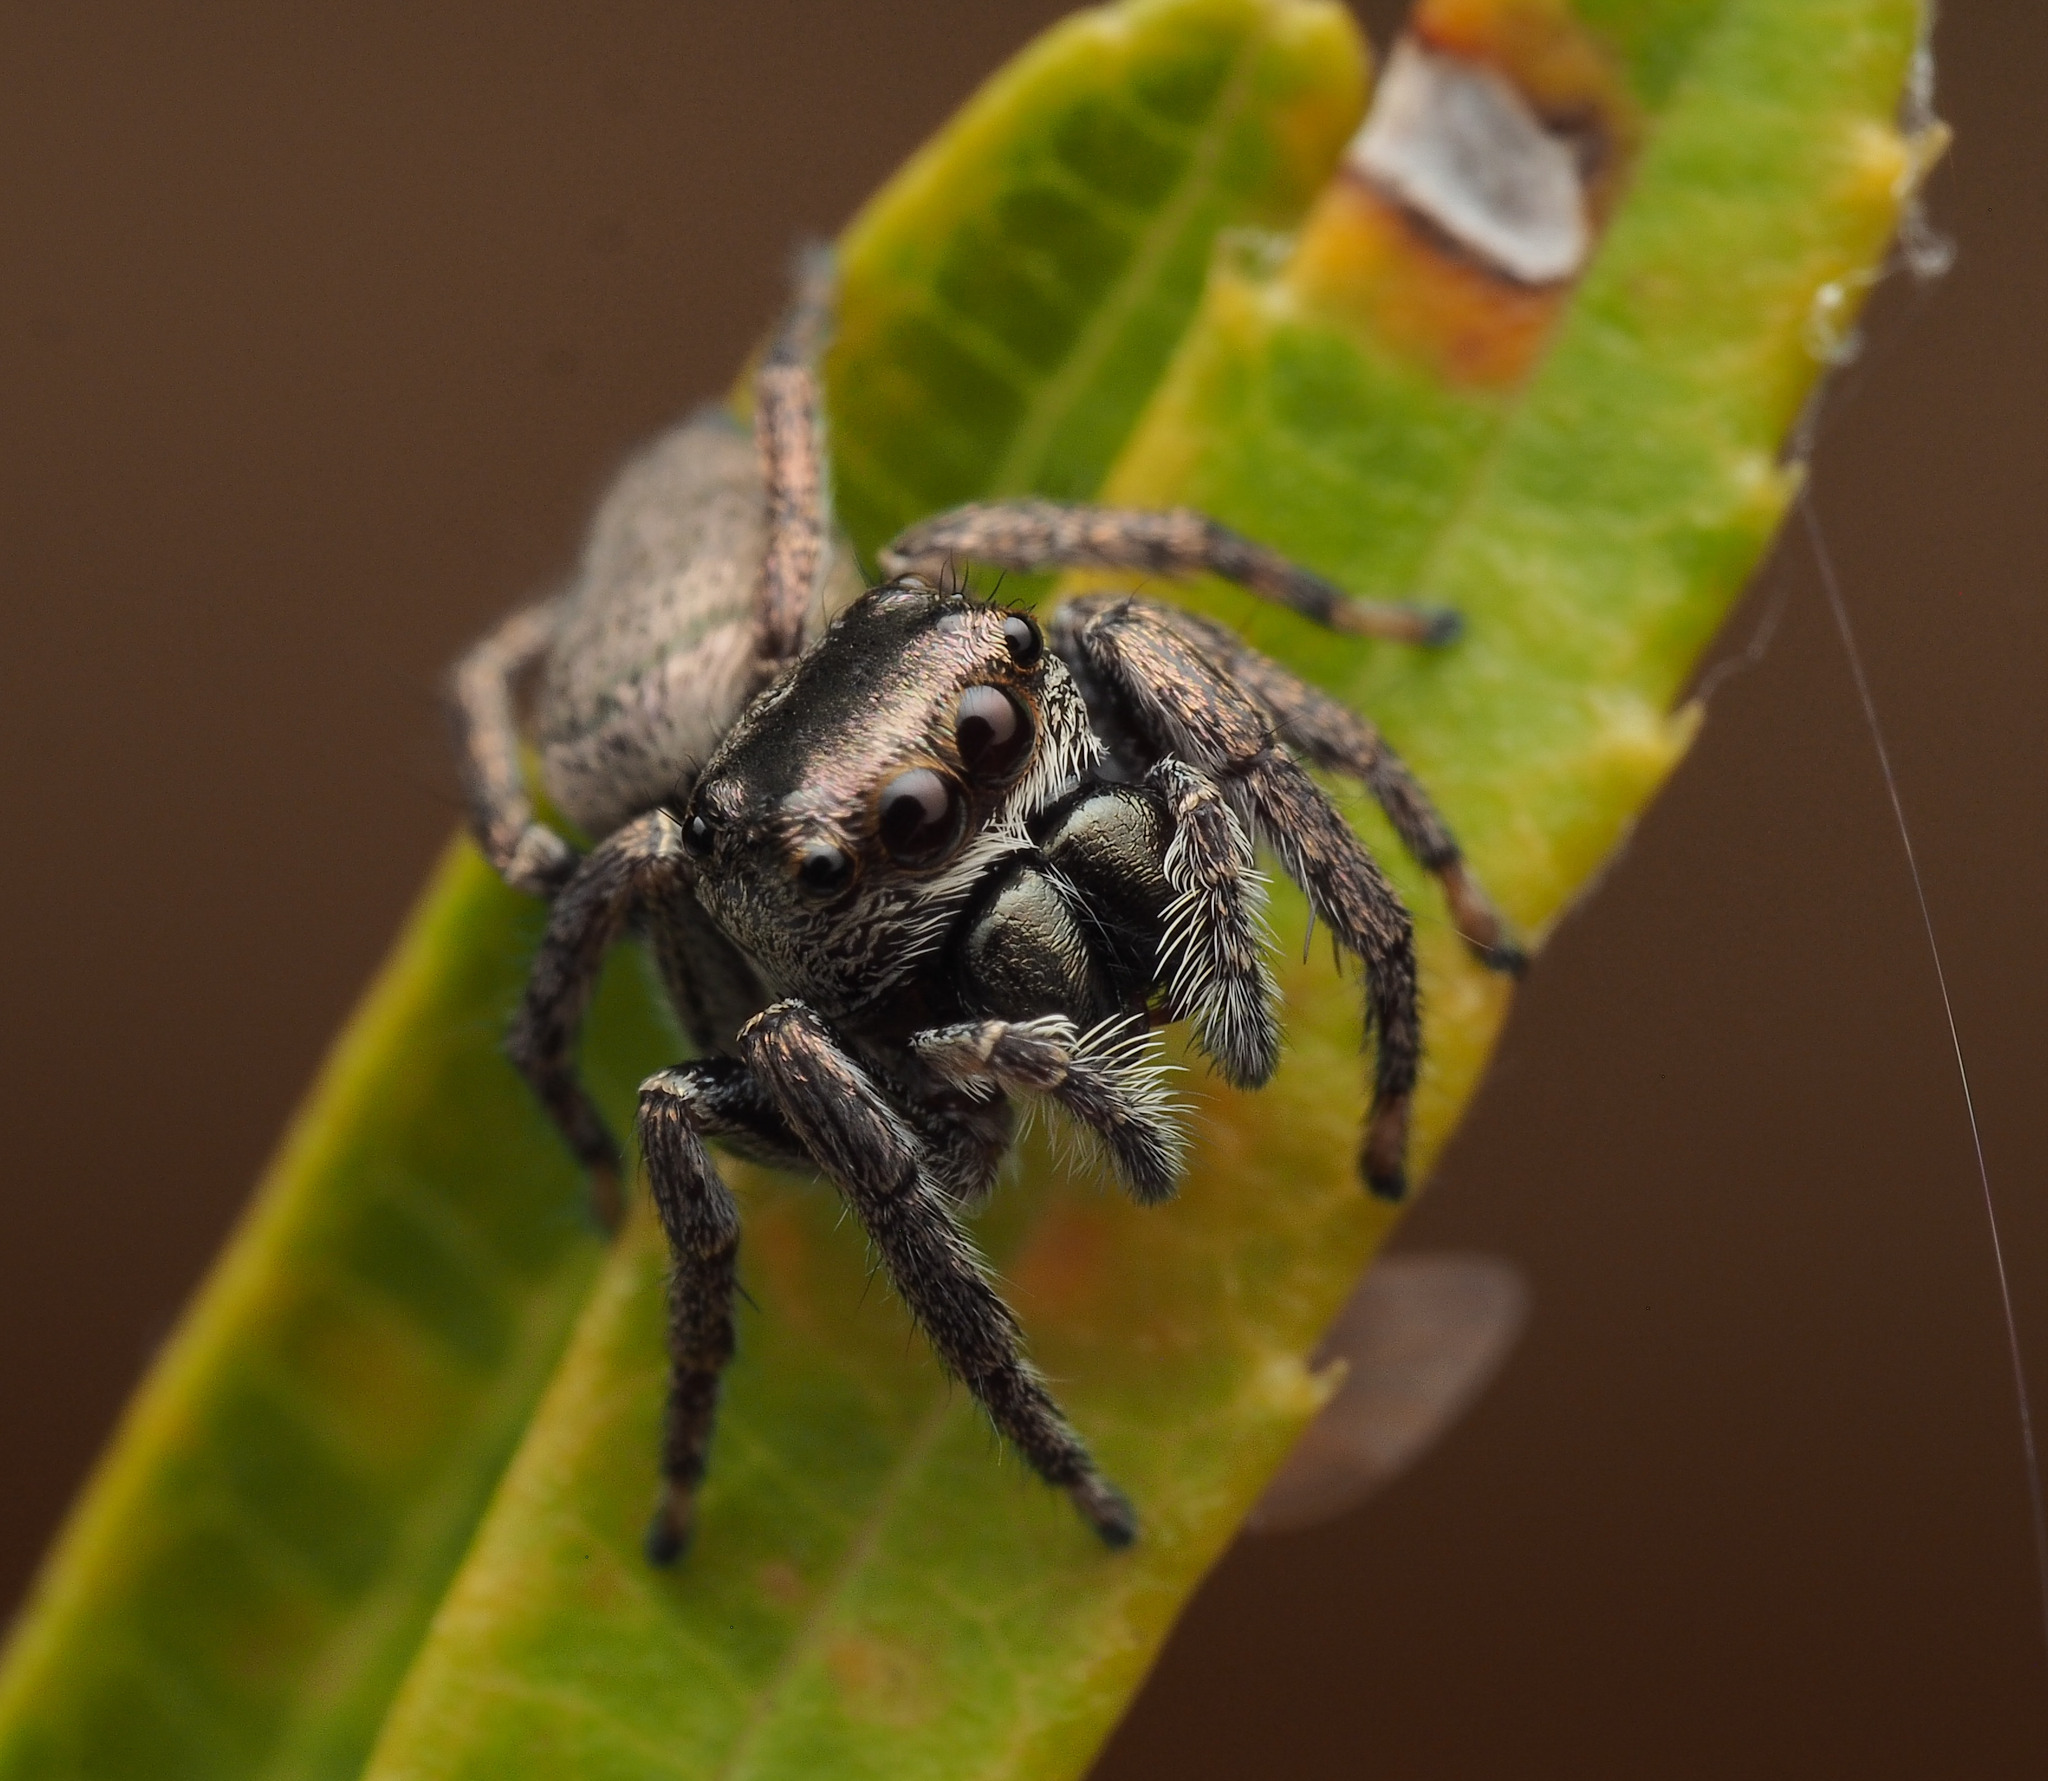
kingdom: Animalia
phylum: Arthropoda
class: Arachnida
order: Araneae
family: Salticidae
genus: Euryattus
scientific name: Euryattus bleekeri
